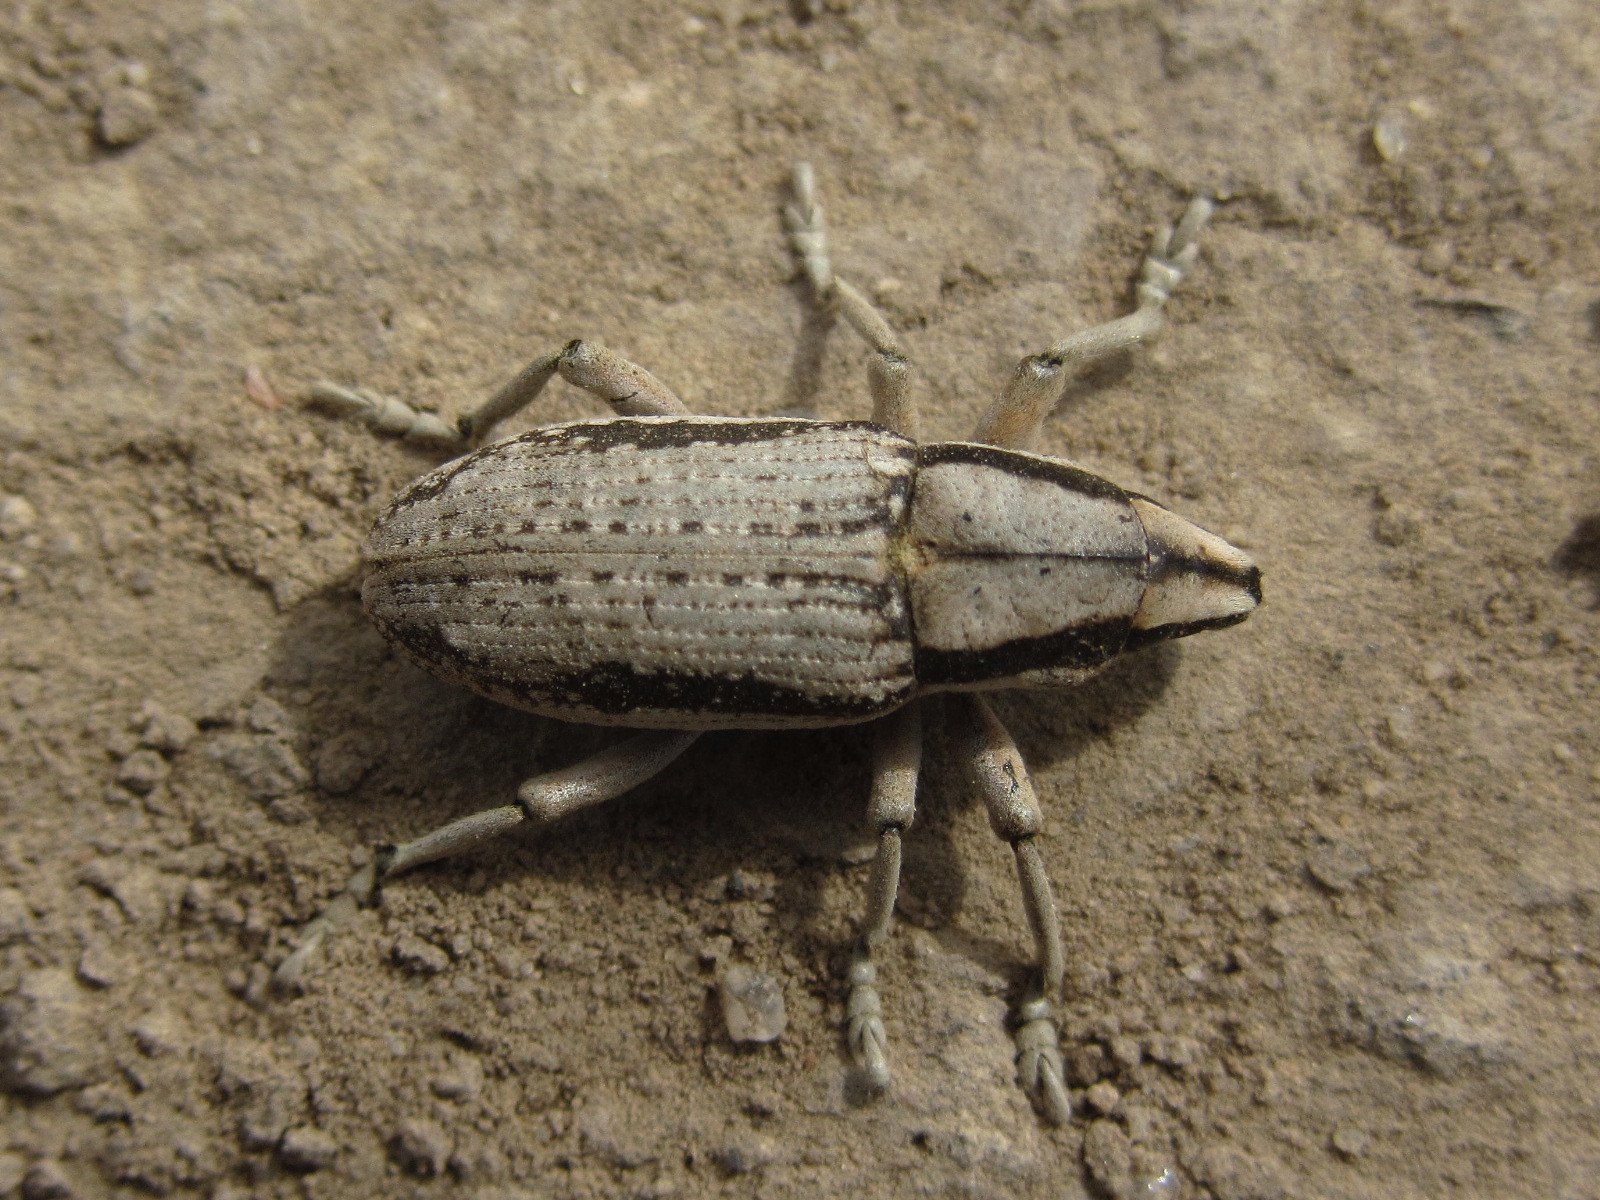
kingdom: Animalia
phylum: Arthropoda
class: Insecta
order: Coleoptera
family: Curculionidae
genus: Conorhynchus
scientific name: Conorhynchus nigrivittis
